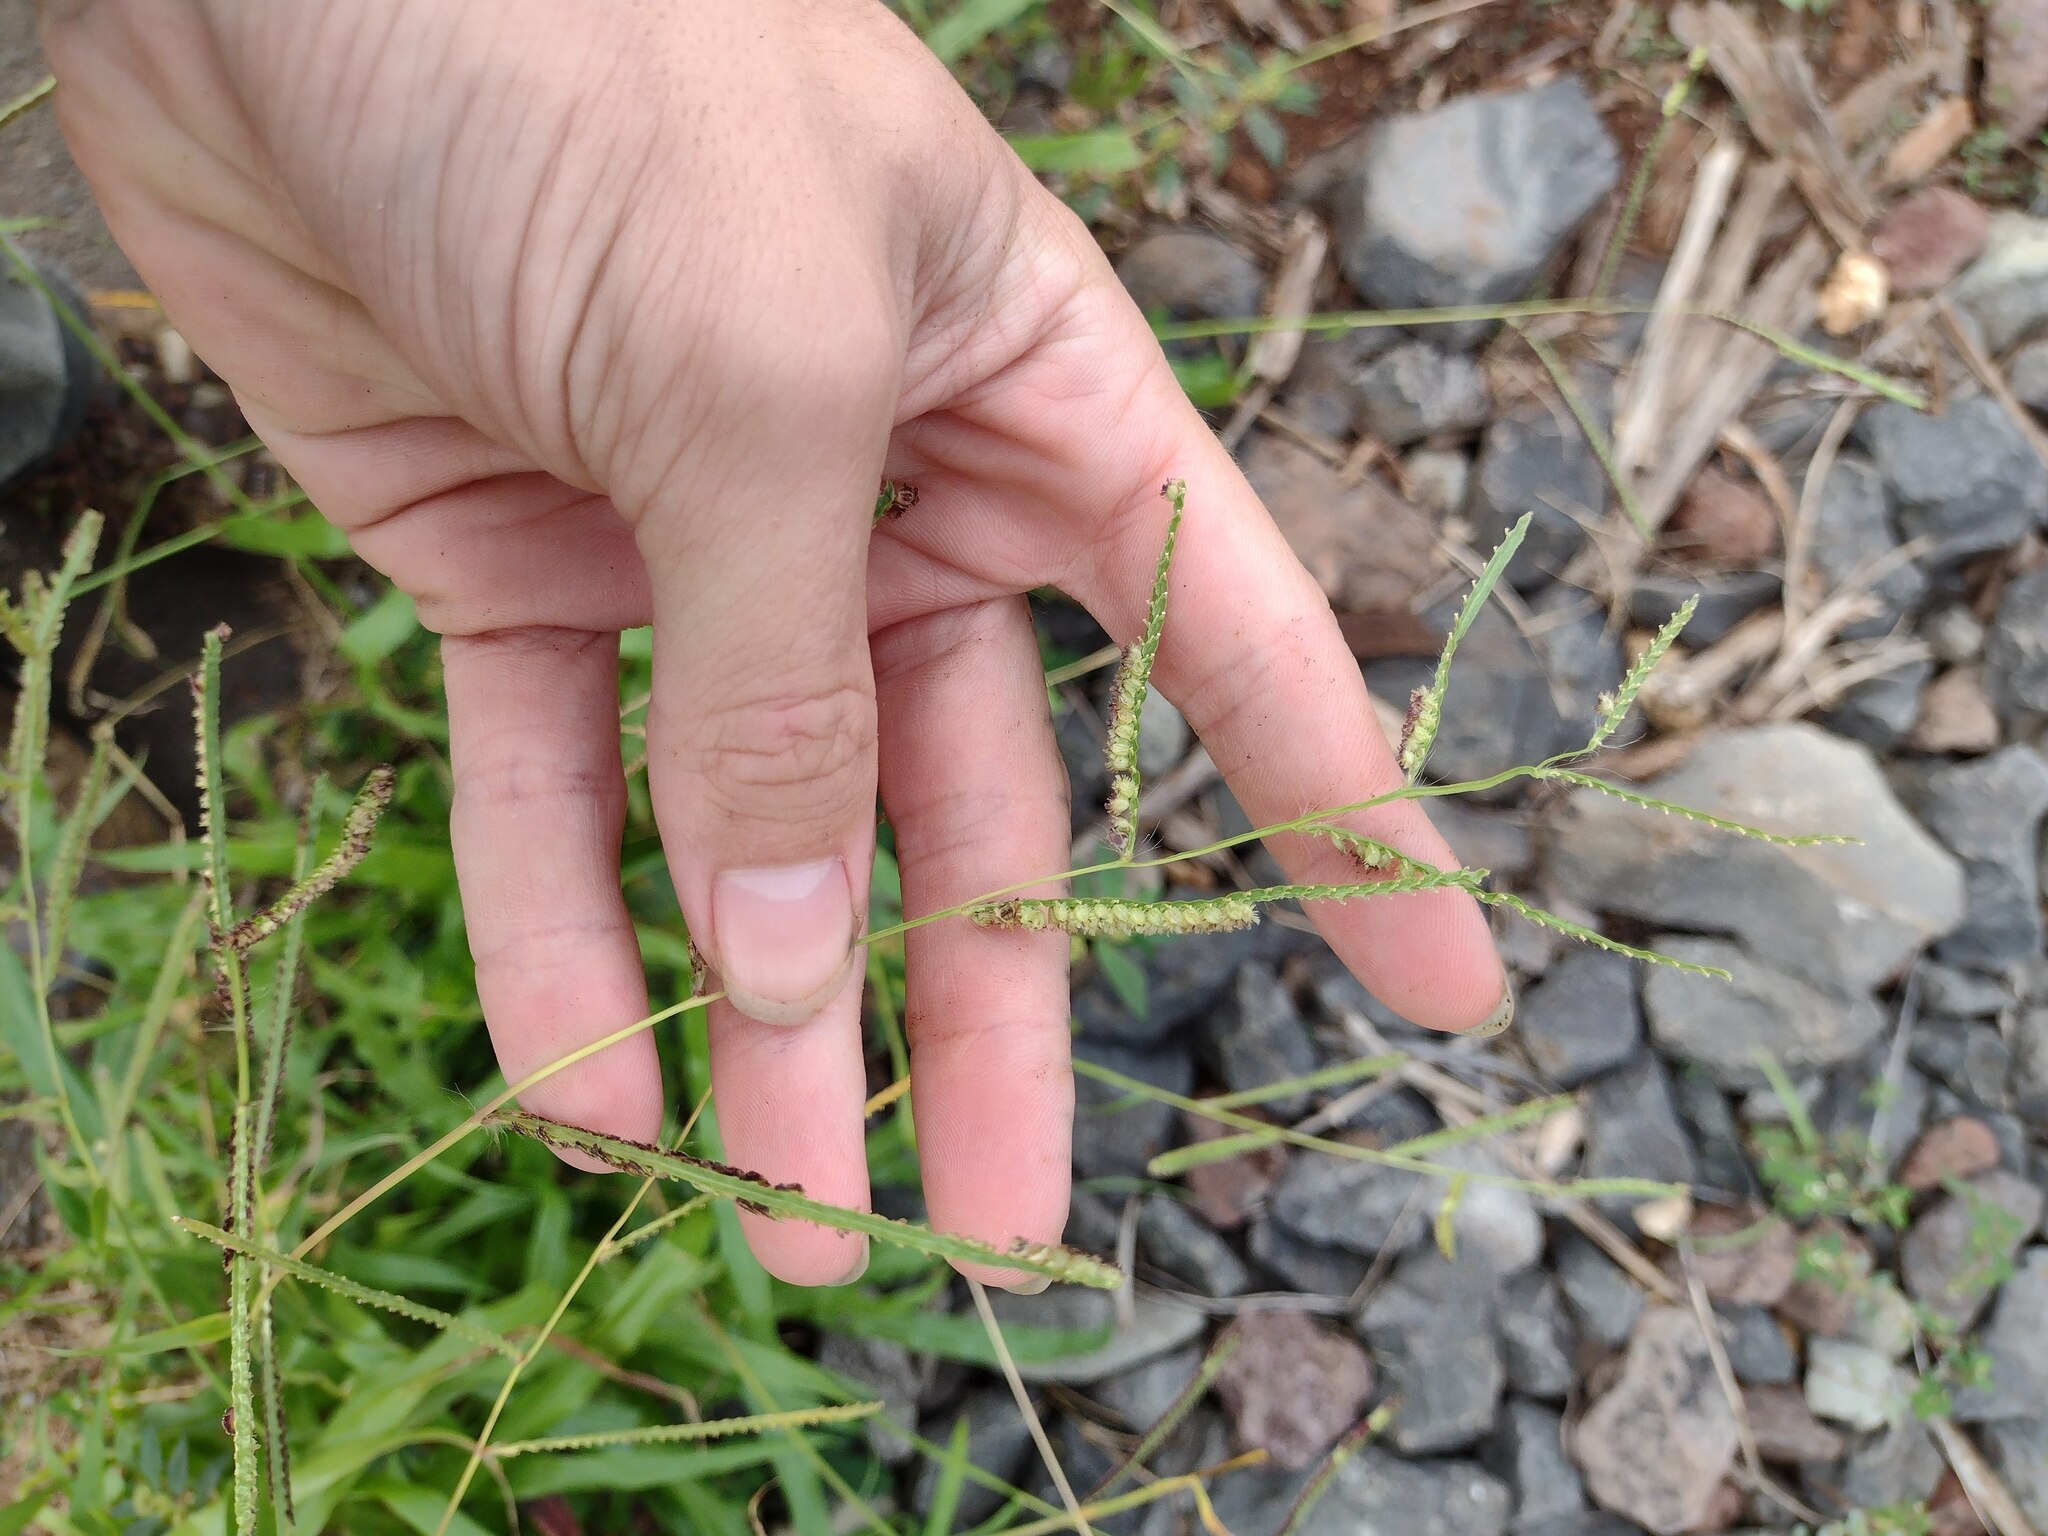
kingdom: Plantae
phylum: Tracheophyta
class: Liliopsida
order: Poales
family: Poaceae
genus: Paspalum
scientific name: Paspalum fimbriatum
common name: Panama crowngrass
